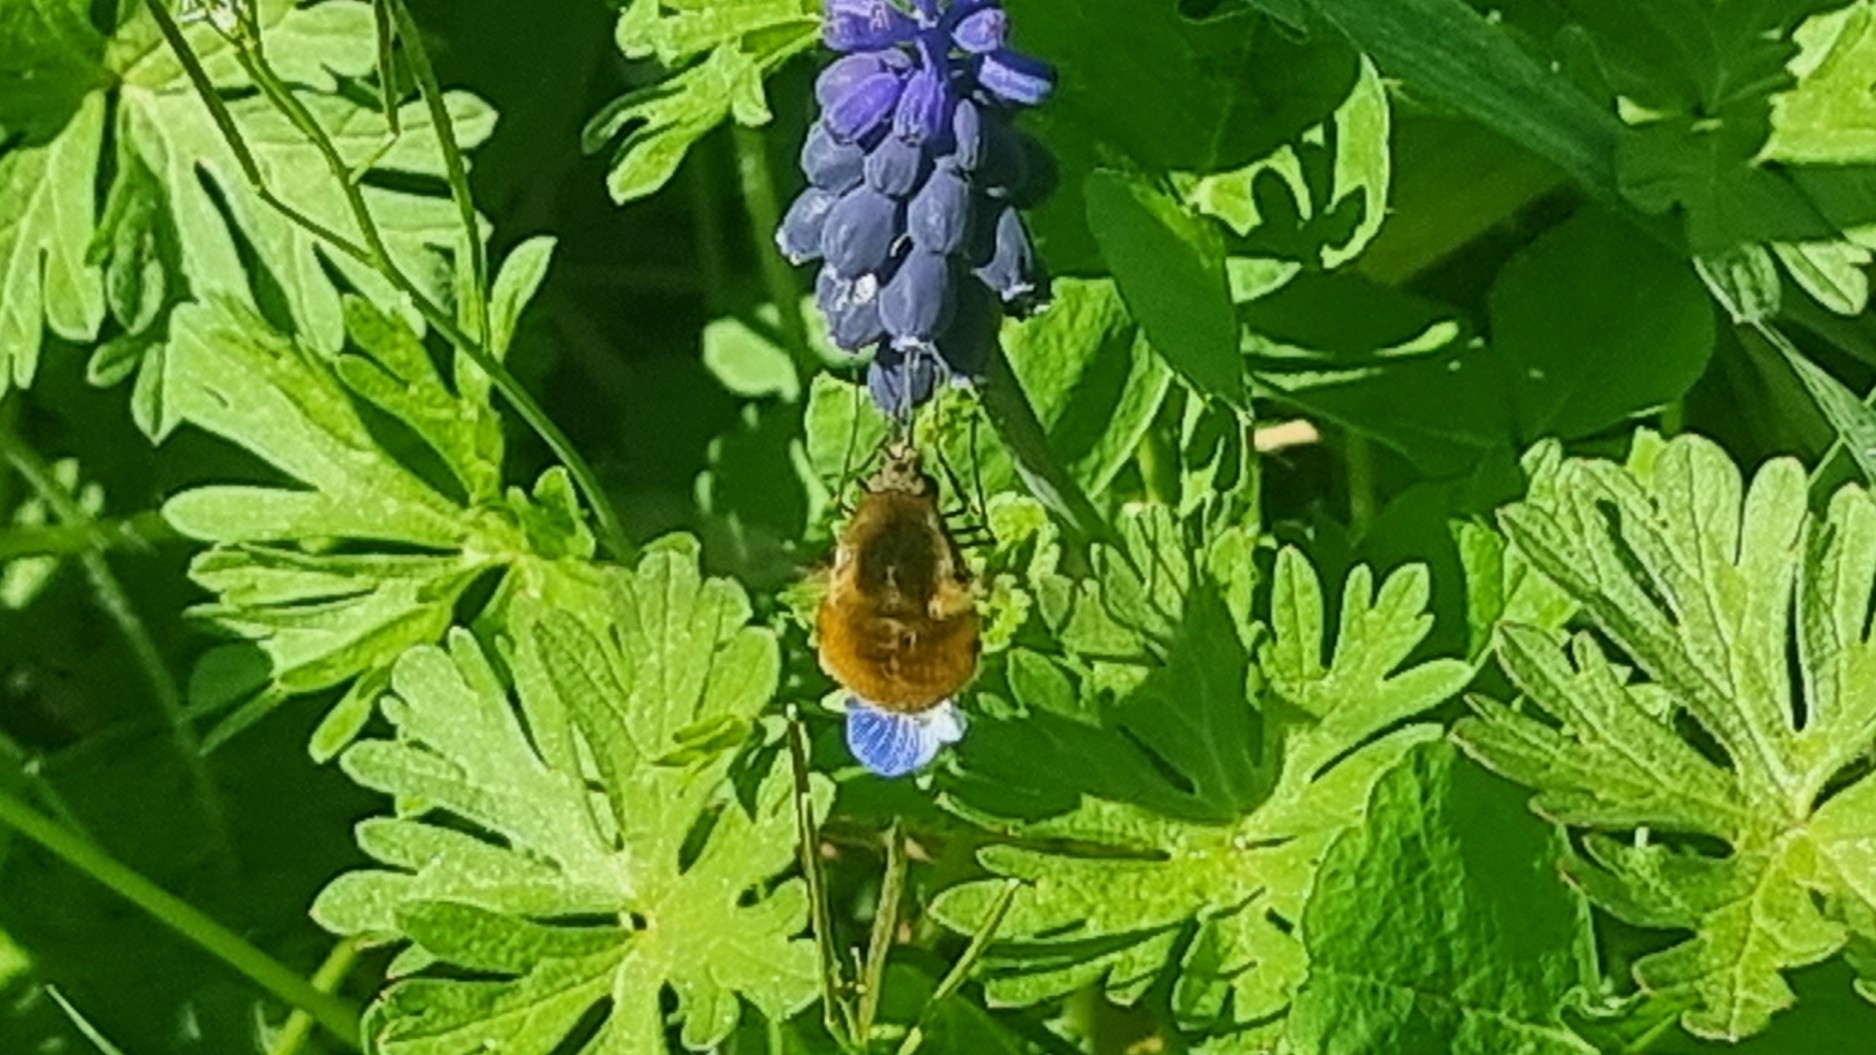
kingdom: Animalia
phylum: Arthropoda
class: Insecta
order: Diptera
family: Bombyliidae
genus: Bombylius
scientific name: Bombylius major
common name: Bee fly
